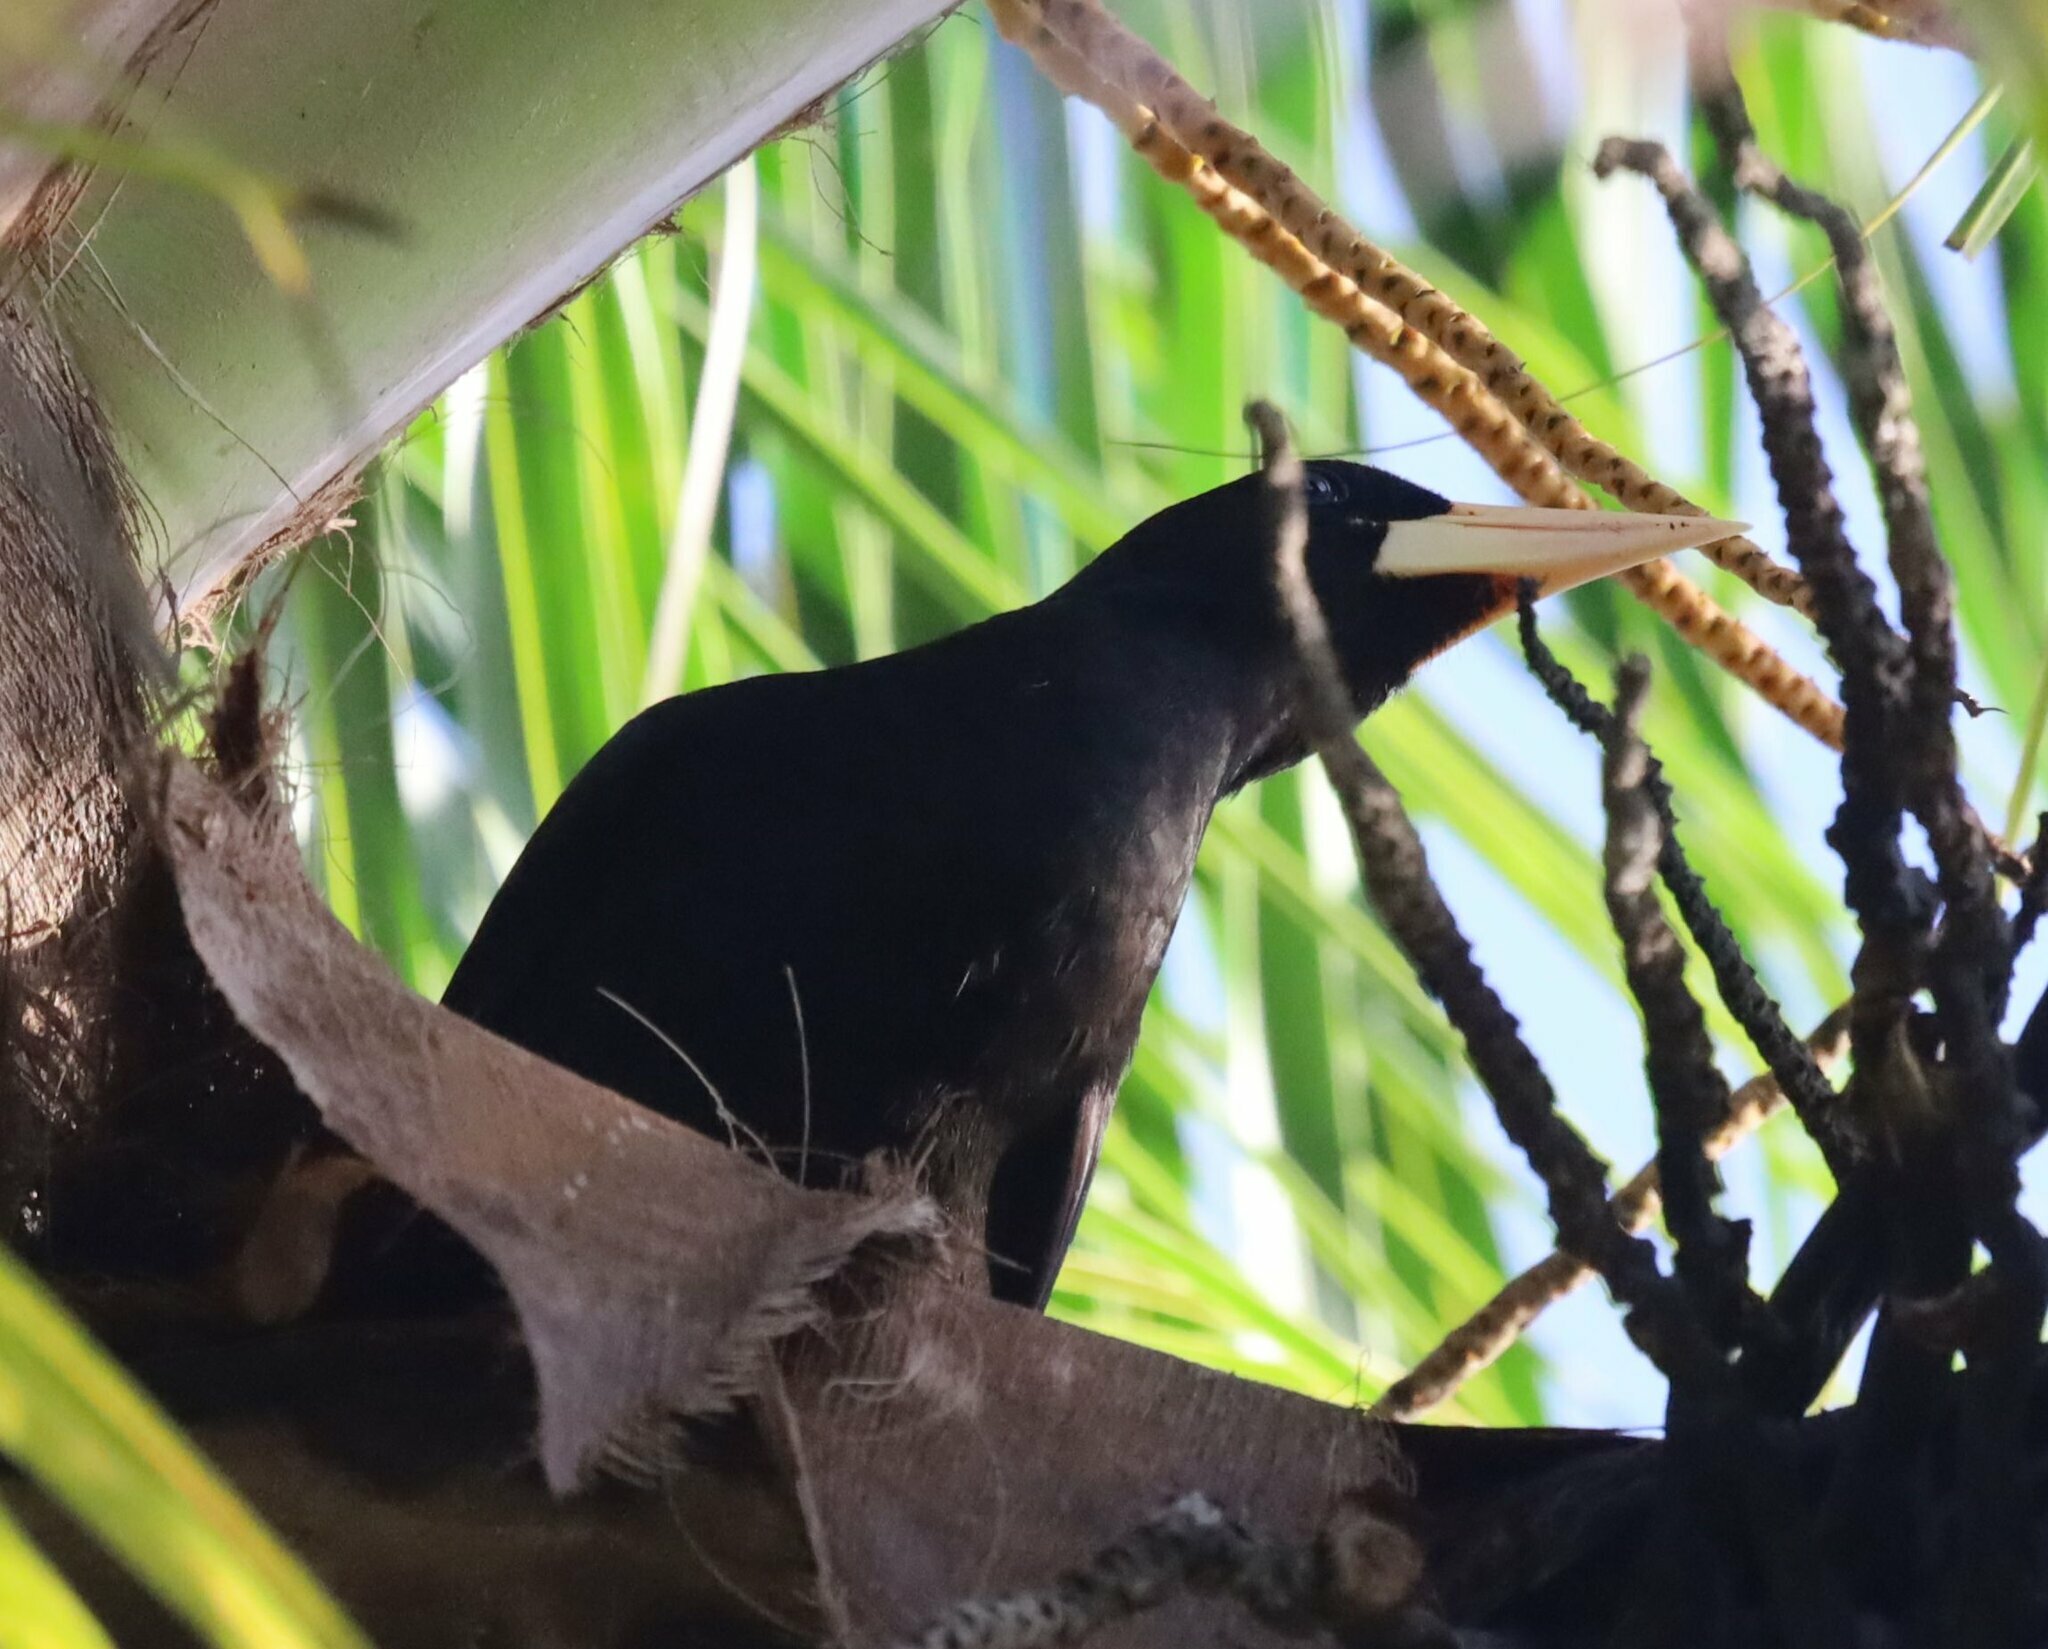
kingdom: Animalia
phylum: Chordata
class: Aves
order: Passeriformes
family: Icteridae
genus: Psarocolius
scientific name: Psarocolius decumanus
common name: Crested oropendola
